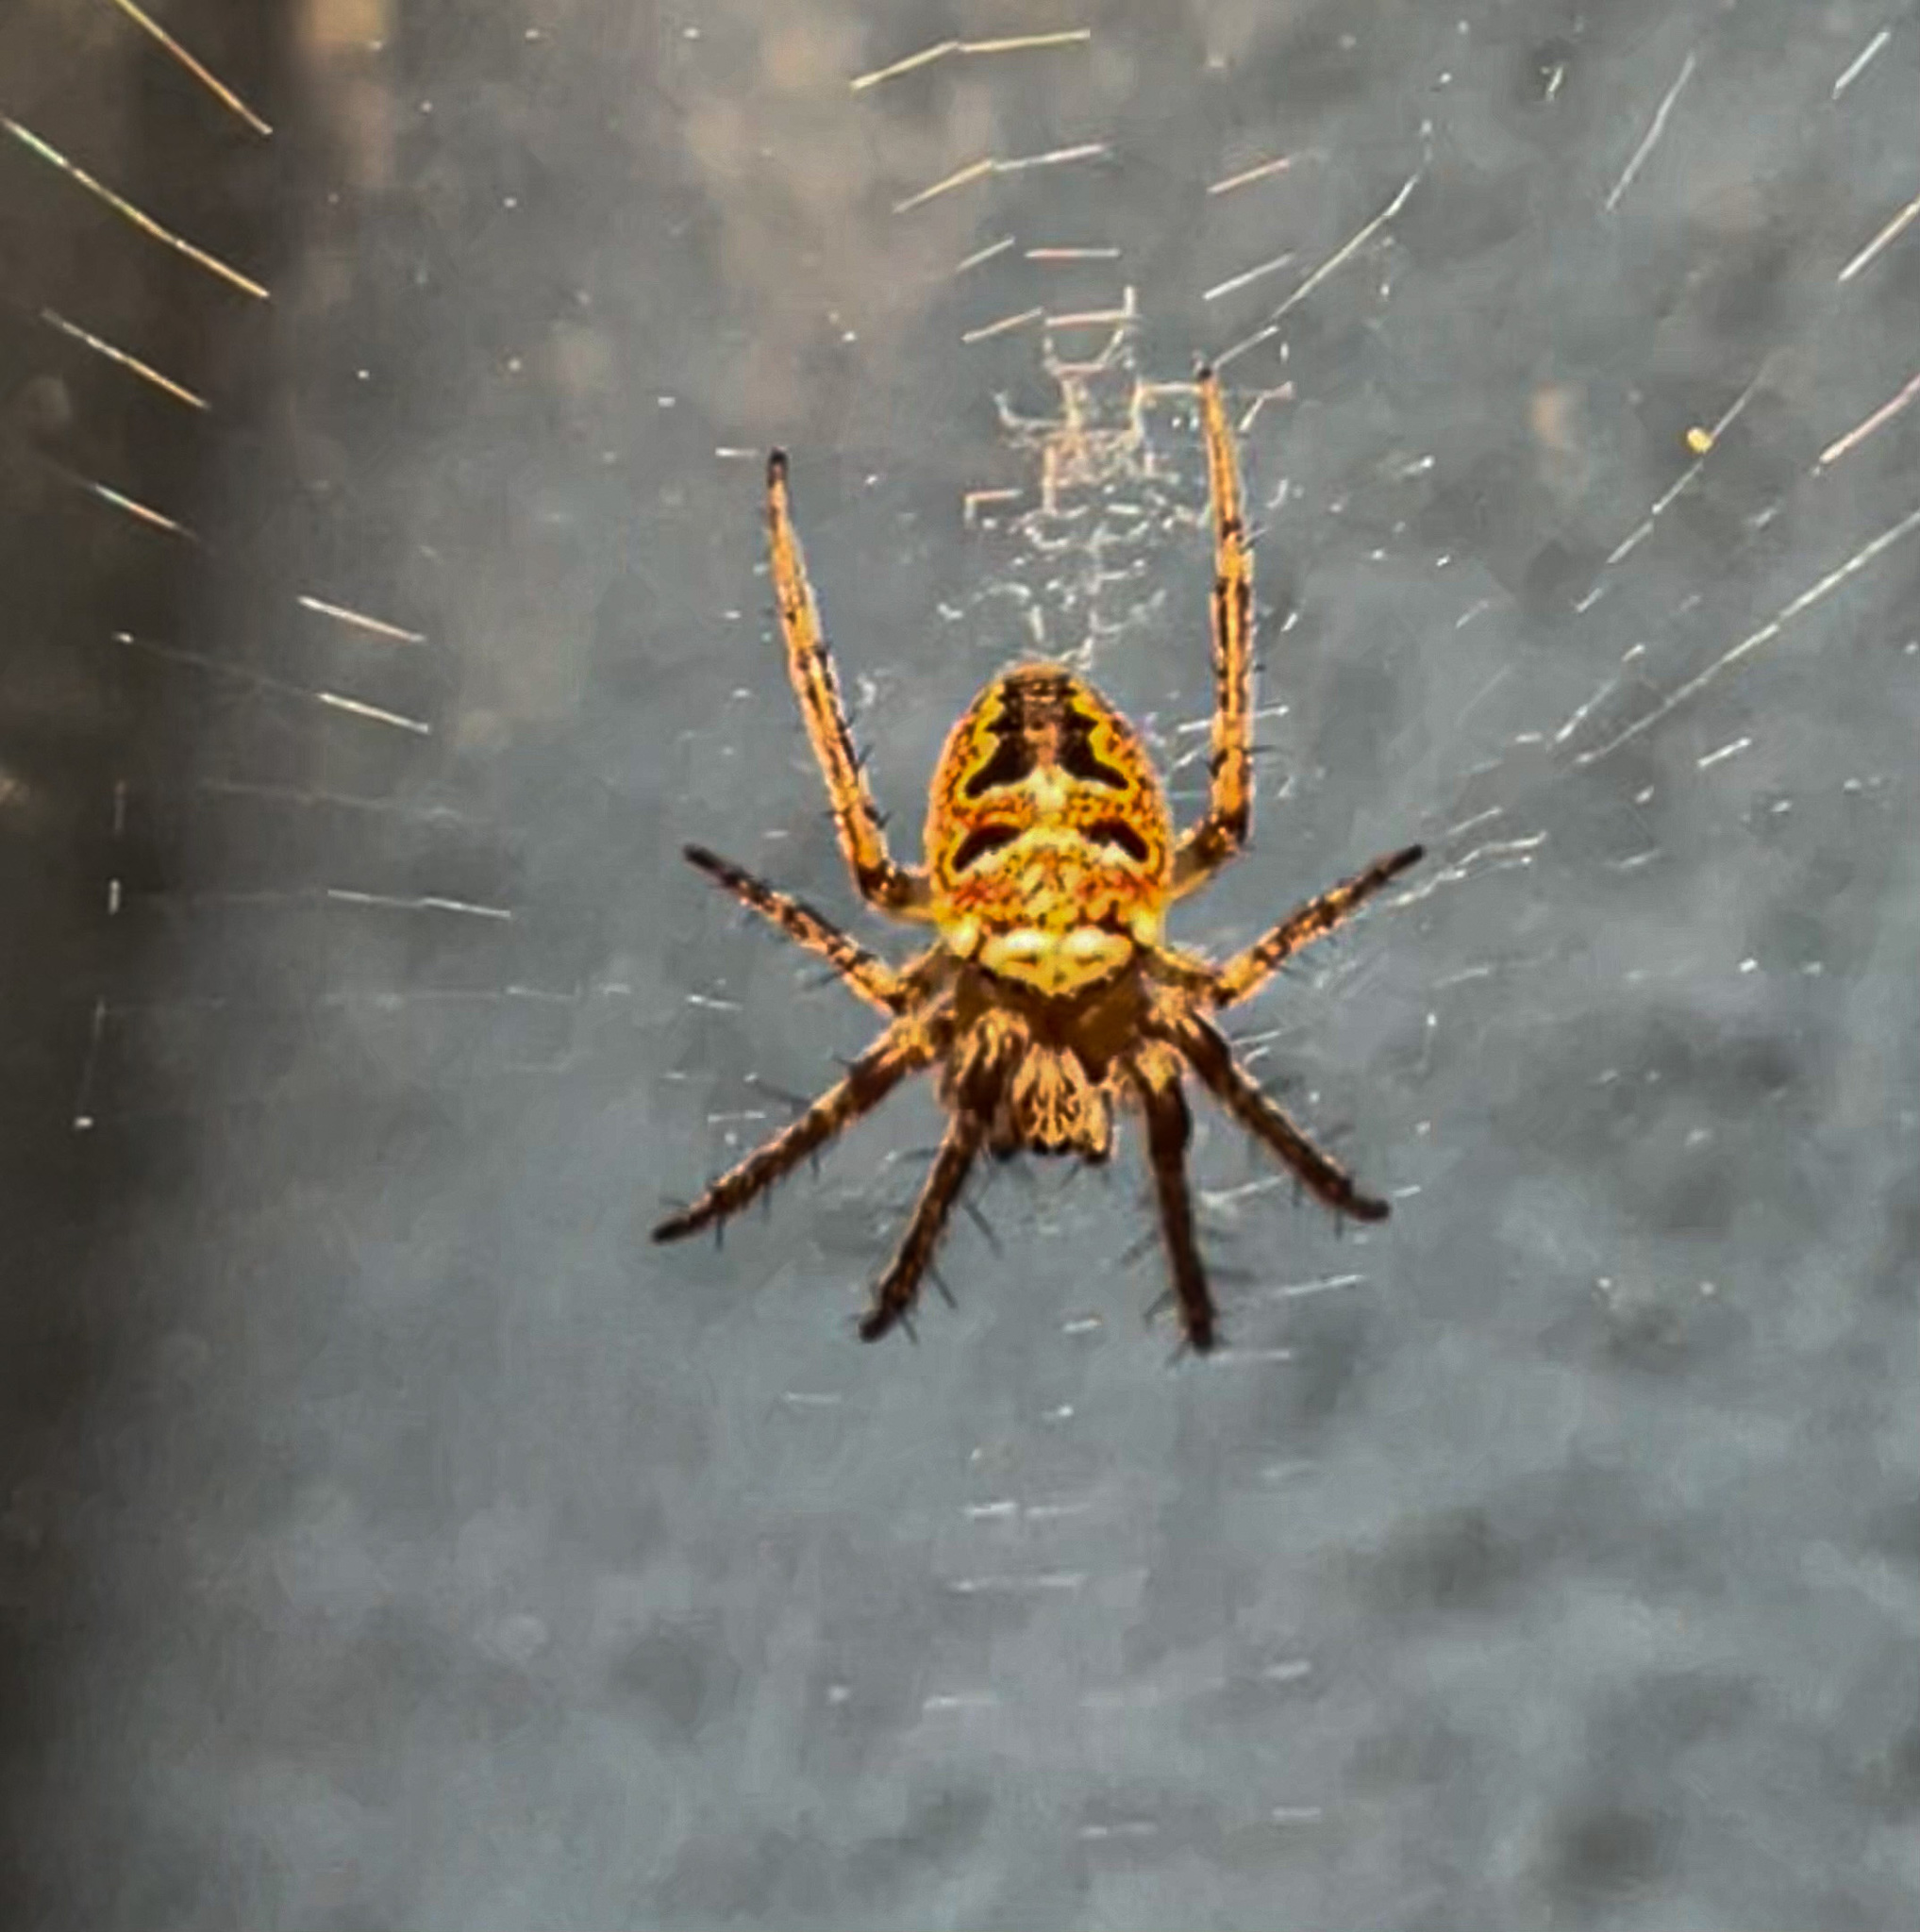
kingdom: Animalia
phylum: Arthropoda
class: Arachnida
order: Araneae
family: Araneidae
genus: Zilla
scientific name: Zilla diodia
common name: Zilla diodia
